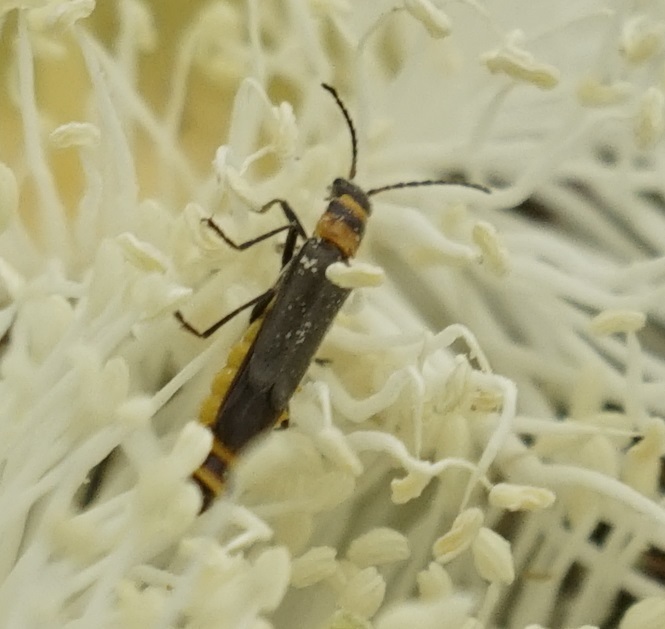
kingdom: Animalia
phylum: Arthropoda
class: Insecta
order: Coleoptera
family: Cantharidae
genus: Chauliognathus
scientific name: Chauliognathus
